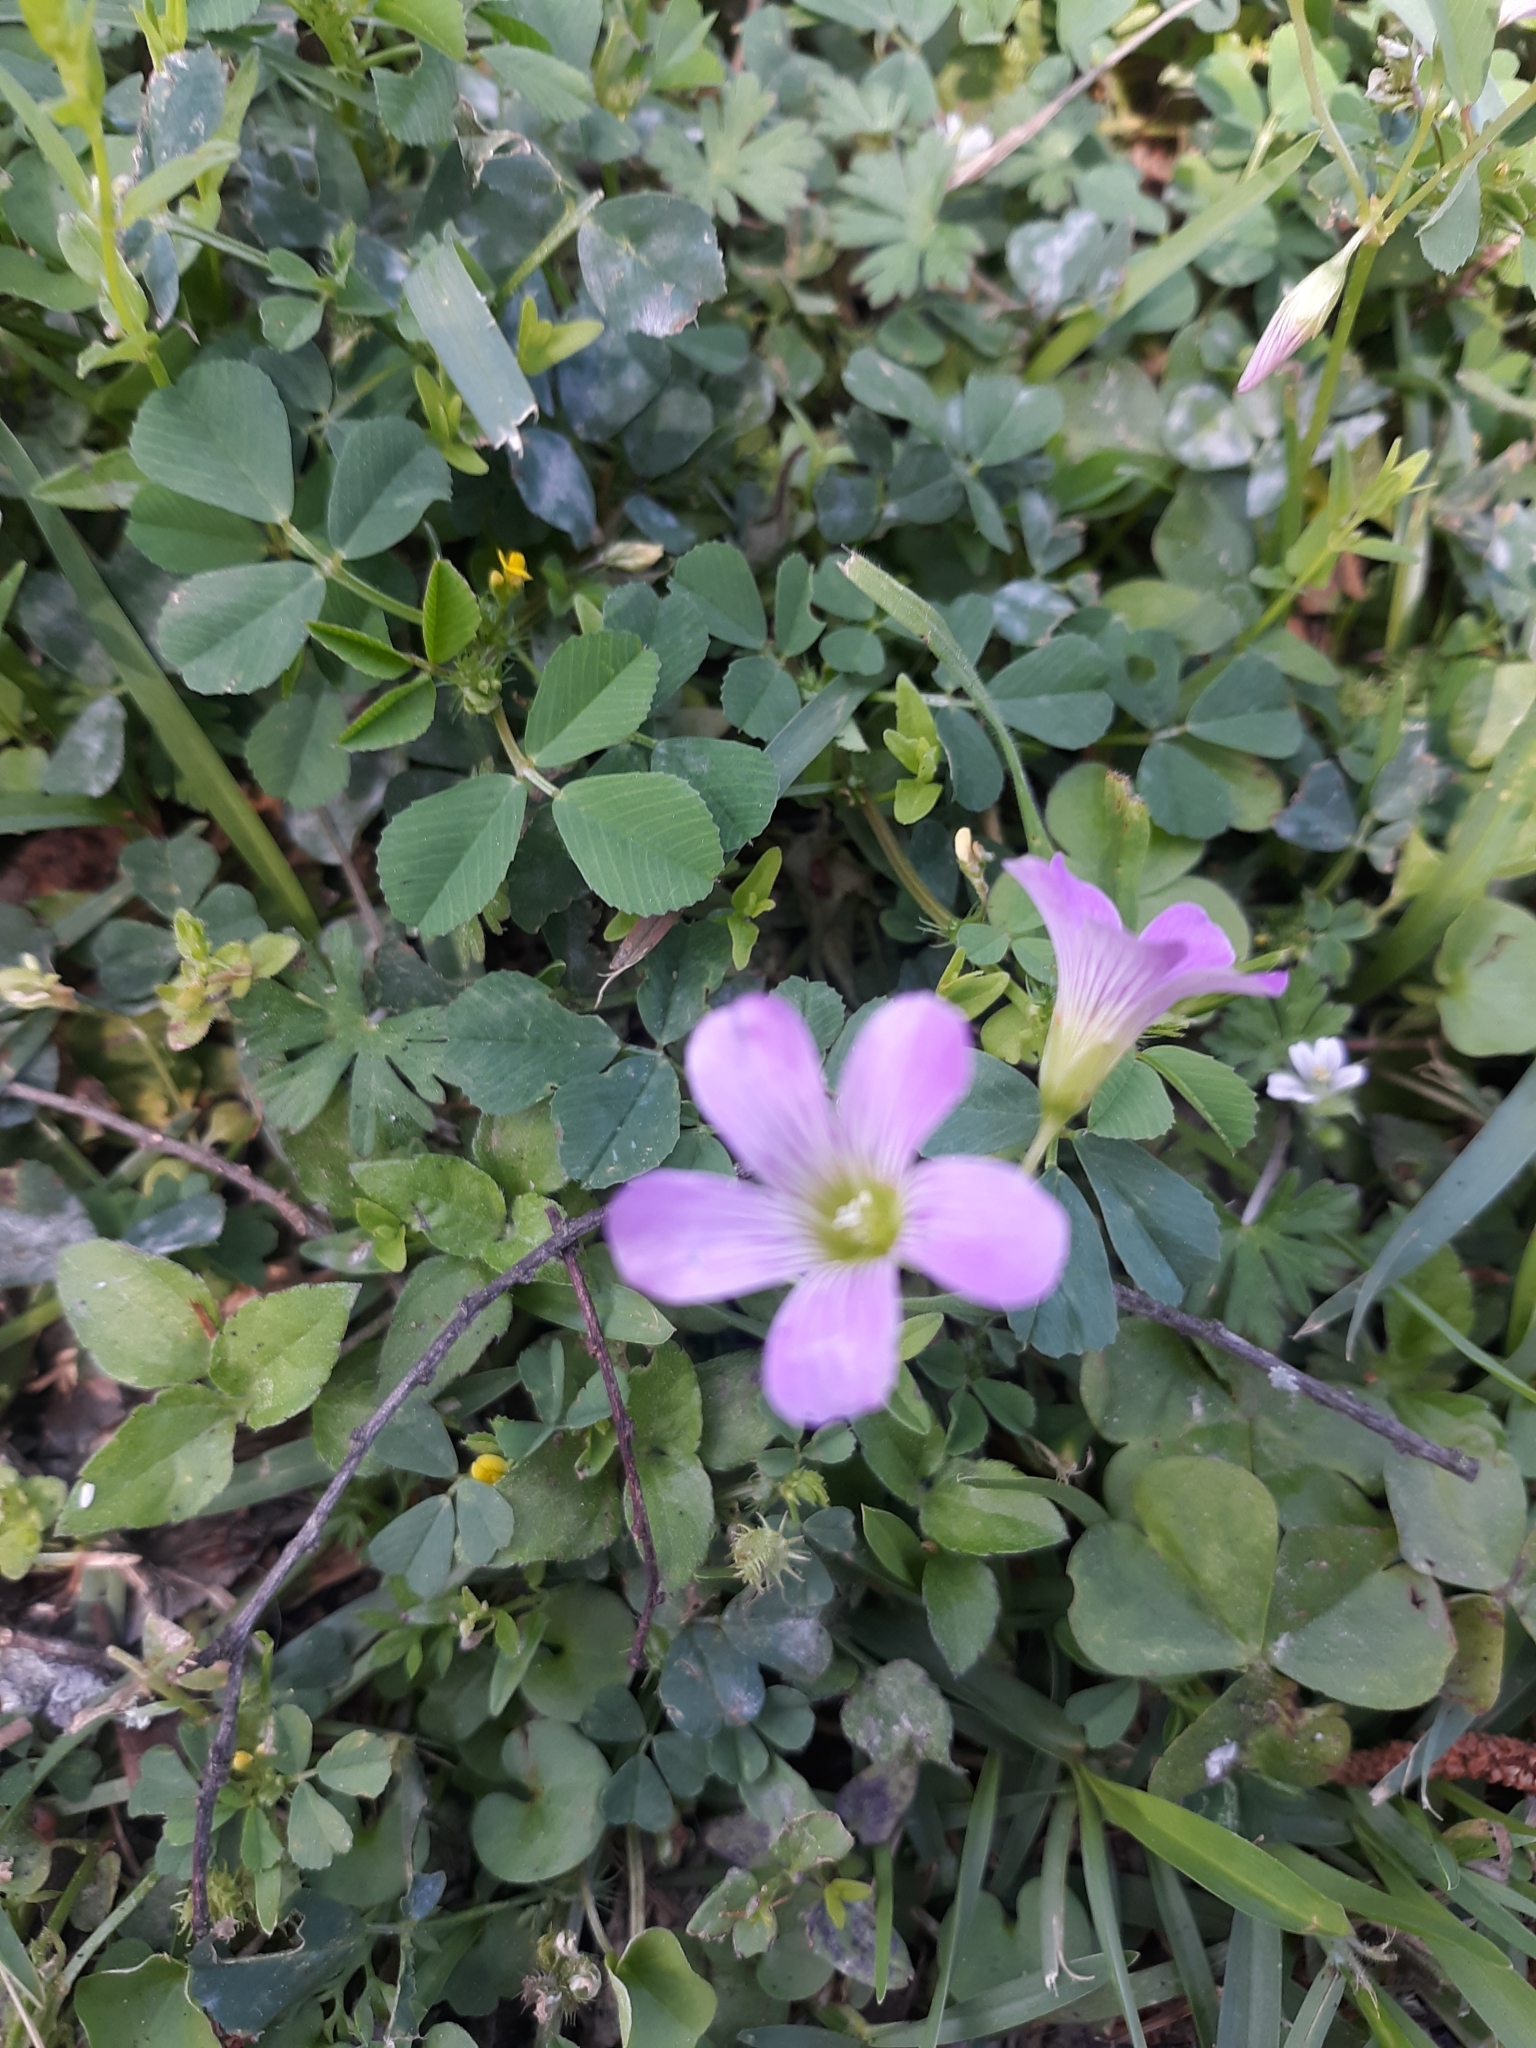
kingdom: Plantae
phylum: Tracheophyta
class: Magnoliopsida
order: Oxalidales
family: Oxalidaceae
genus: Oxalis
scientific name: Oxalis debilis
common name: Large-flowered pink-sorrel
